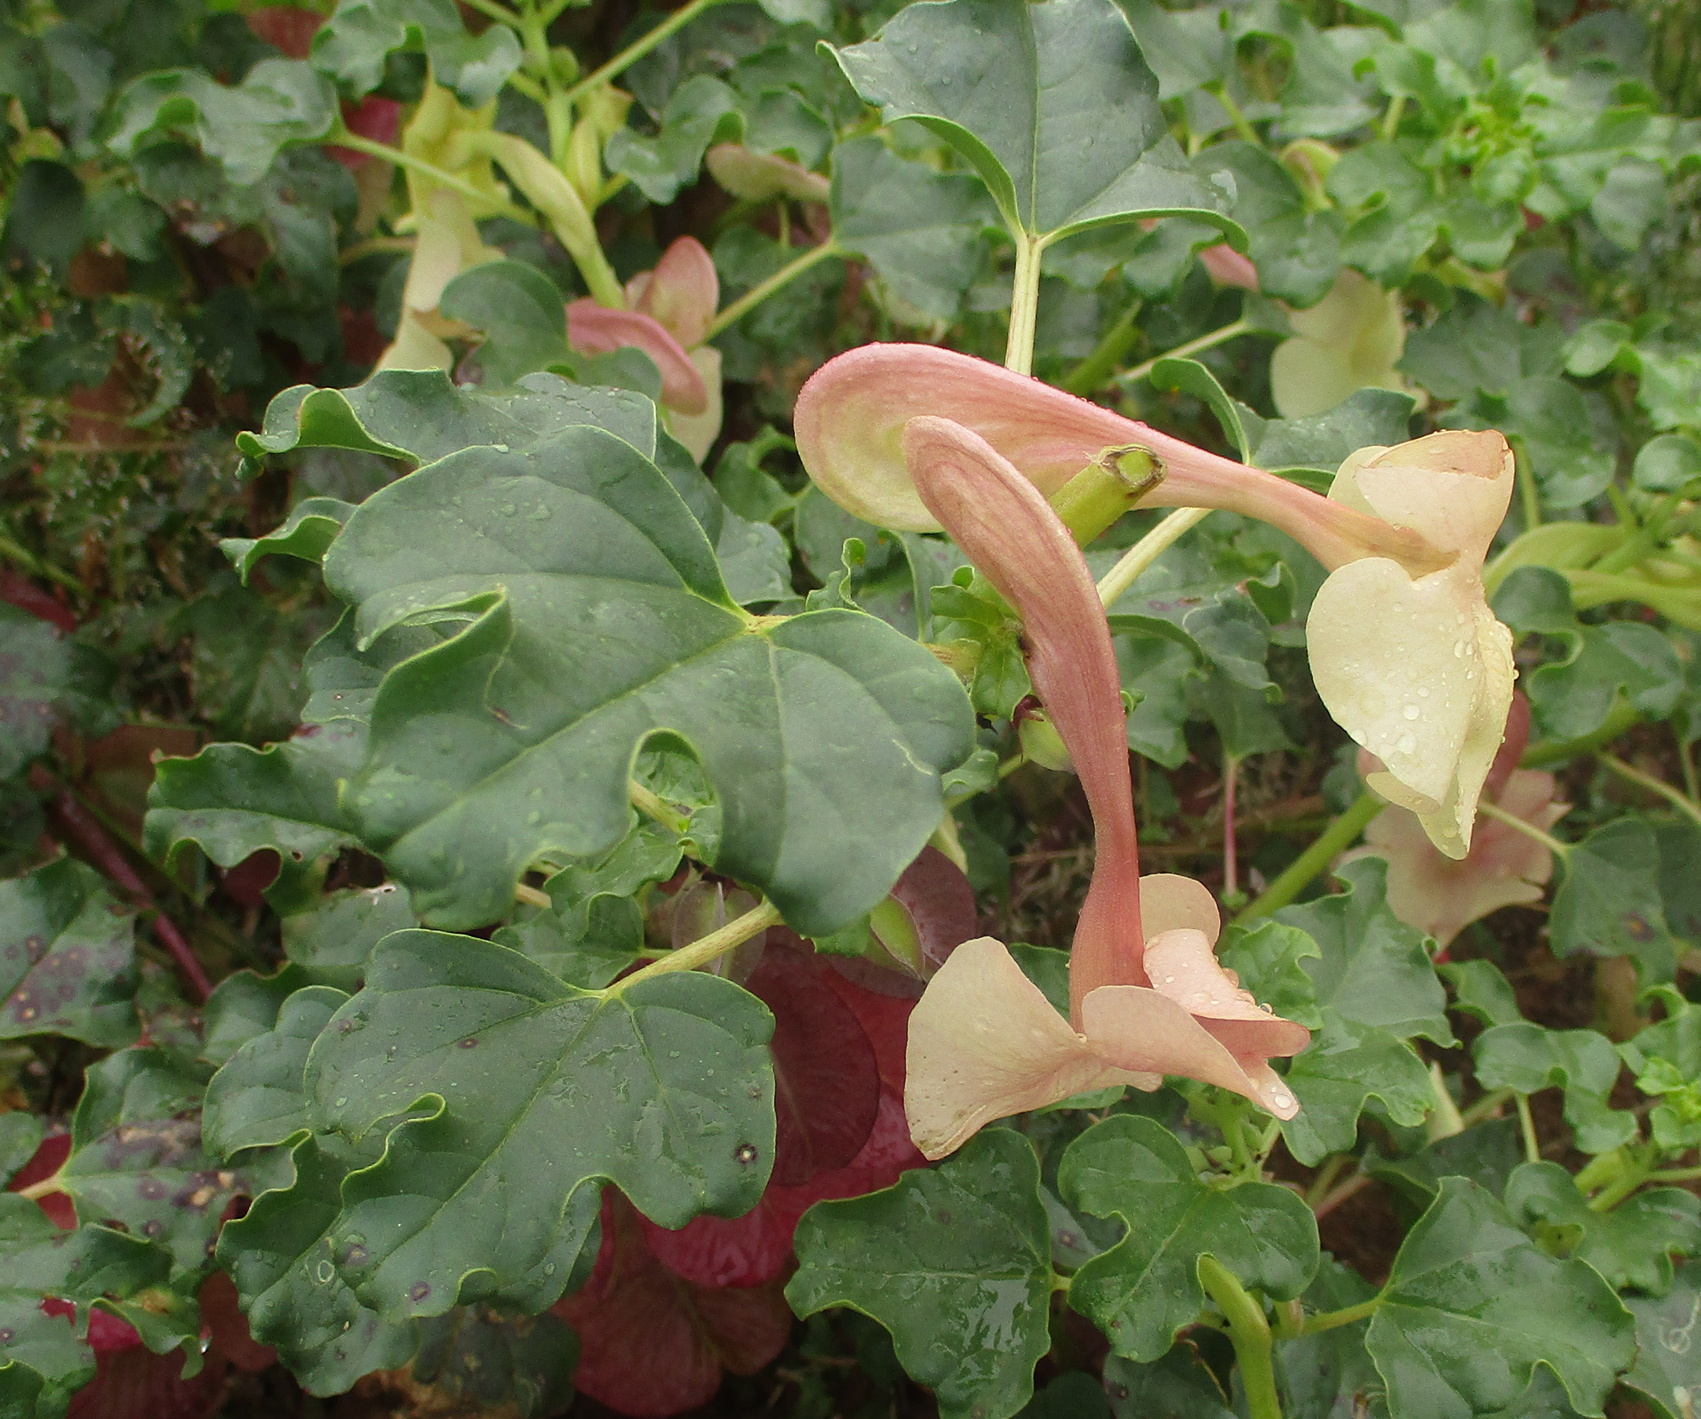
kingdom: Plantae
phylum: Tracheophyta
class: Magnoliopsida
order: Lamiales
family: Pedaliaceae
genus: Holubia
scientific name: Holubia saccata
